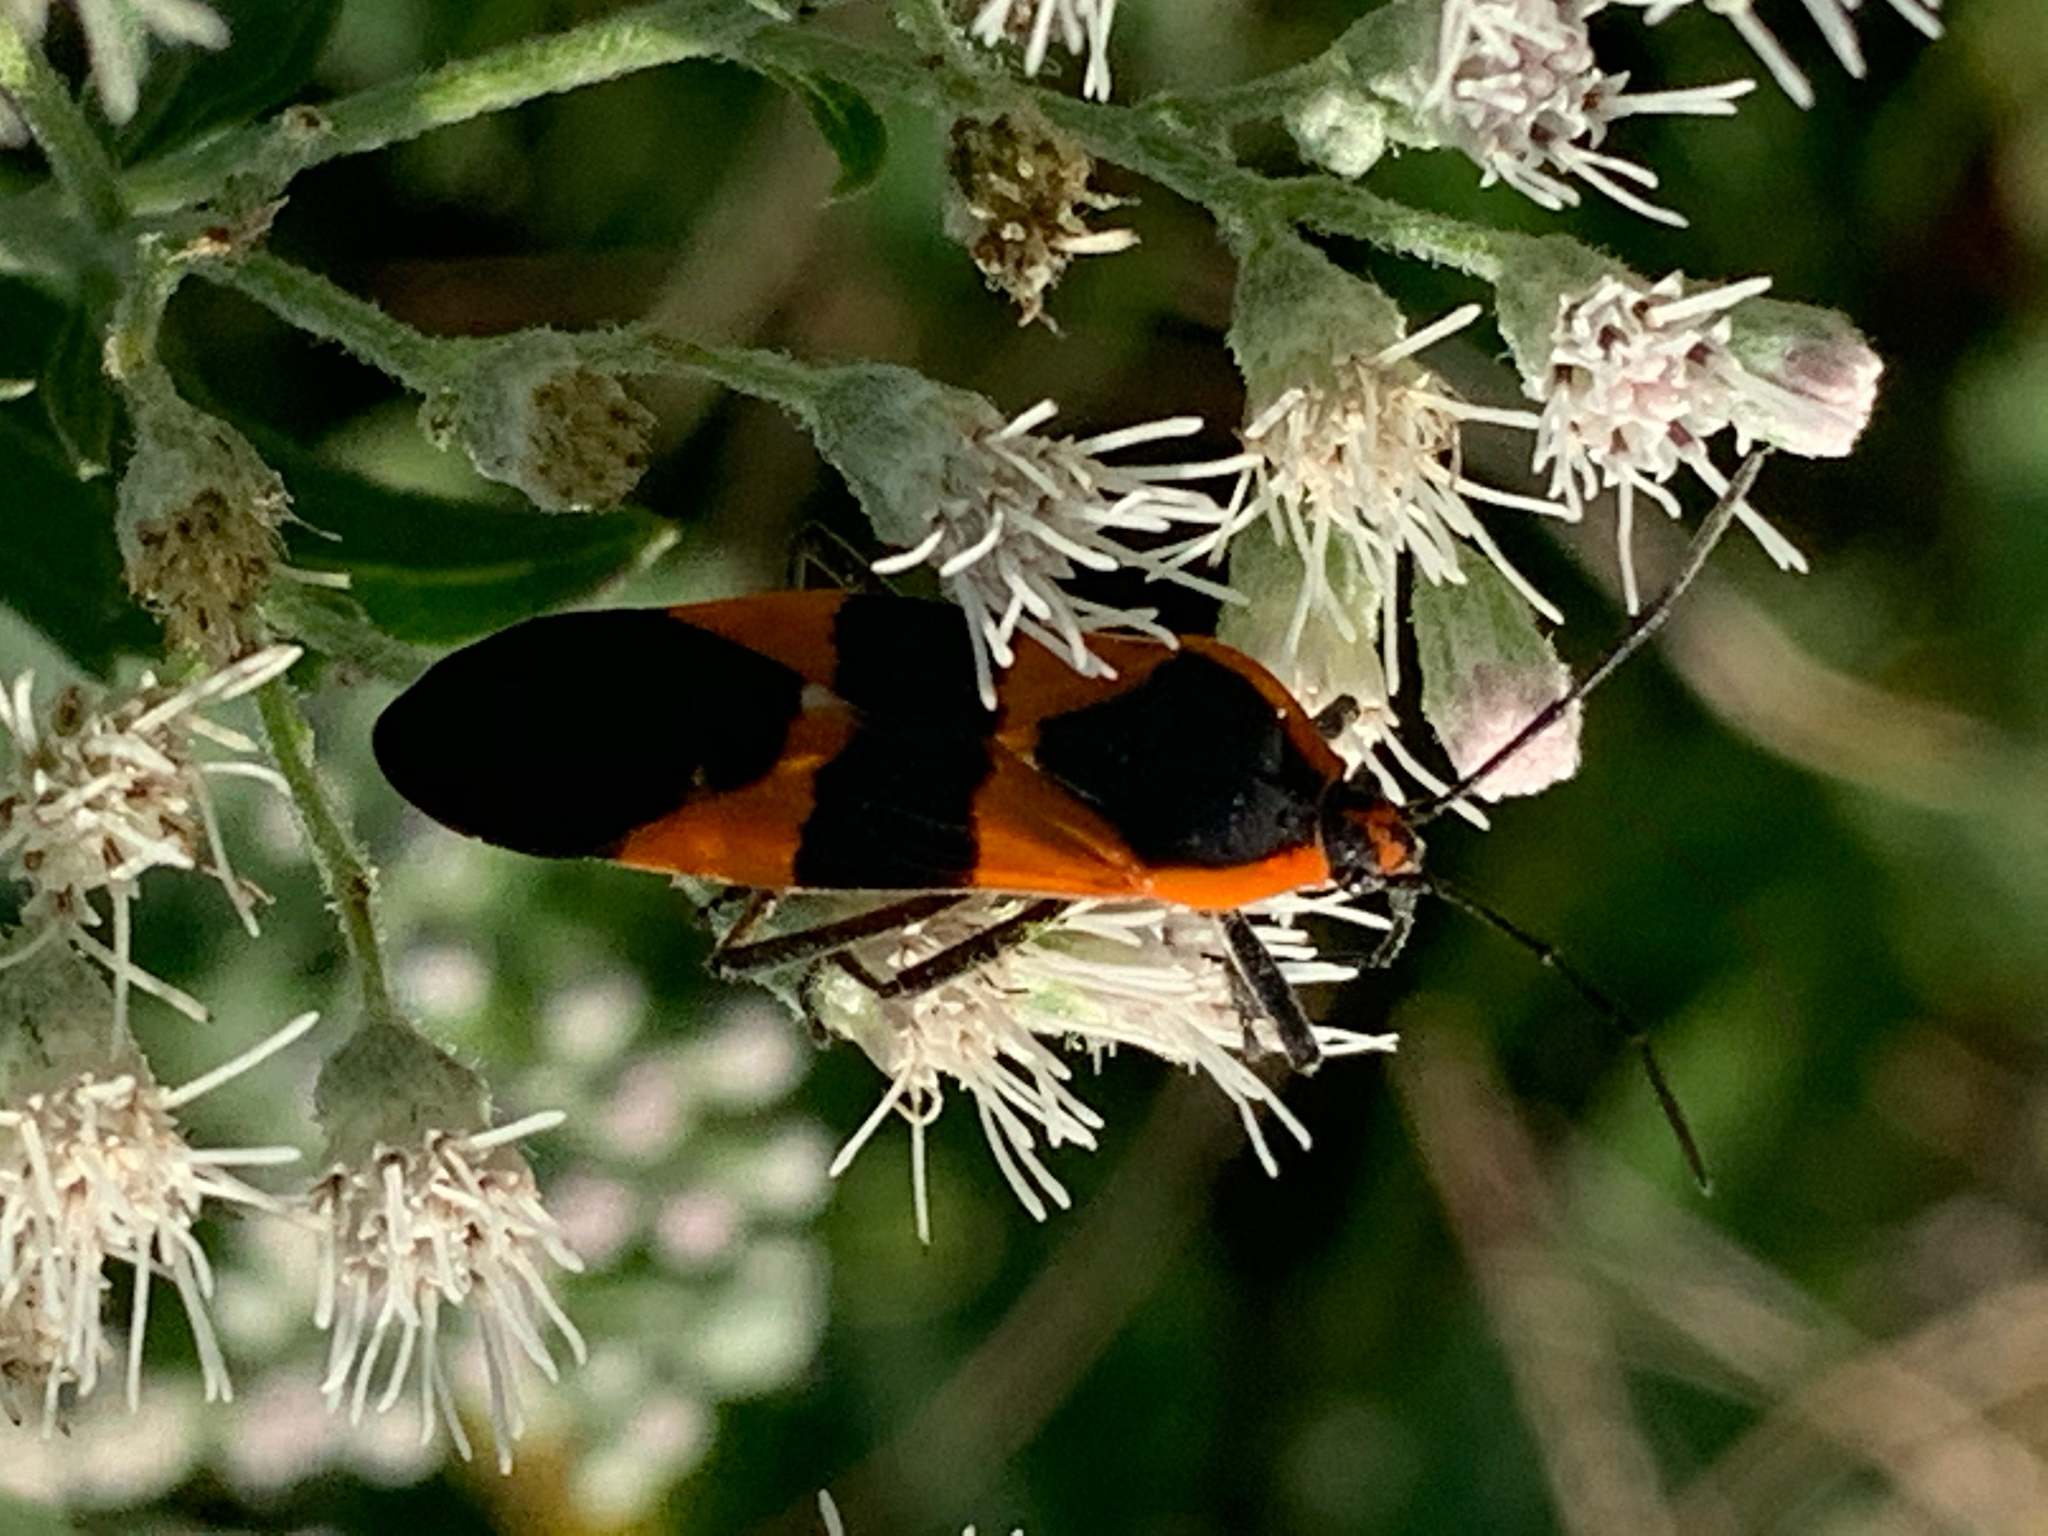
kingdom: Animalia
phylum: Arthropoda
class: Insecta
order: Hemiptera
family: Lygaeidae
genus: Oncopeltus
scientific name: Oncopeltus fasciatus
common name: Large milkweed bug
